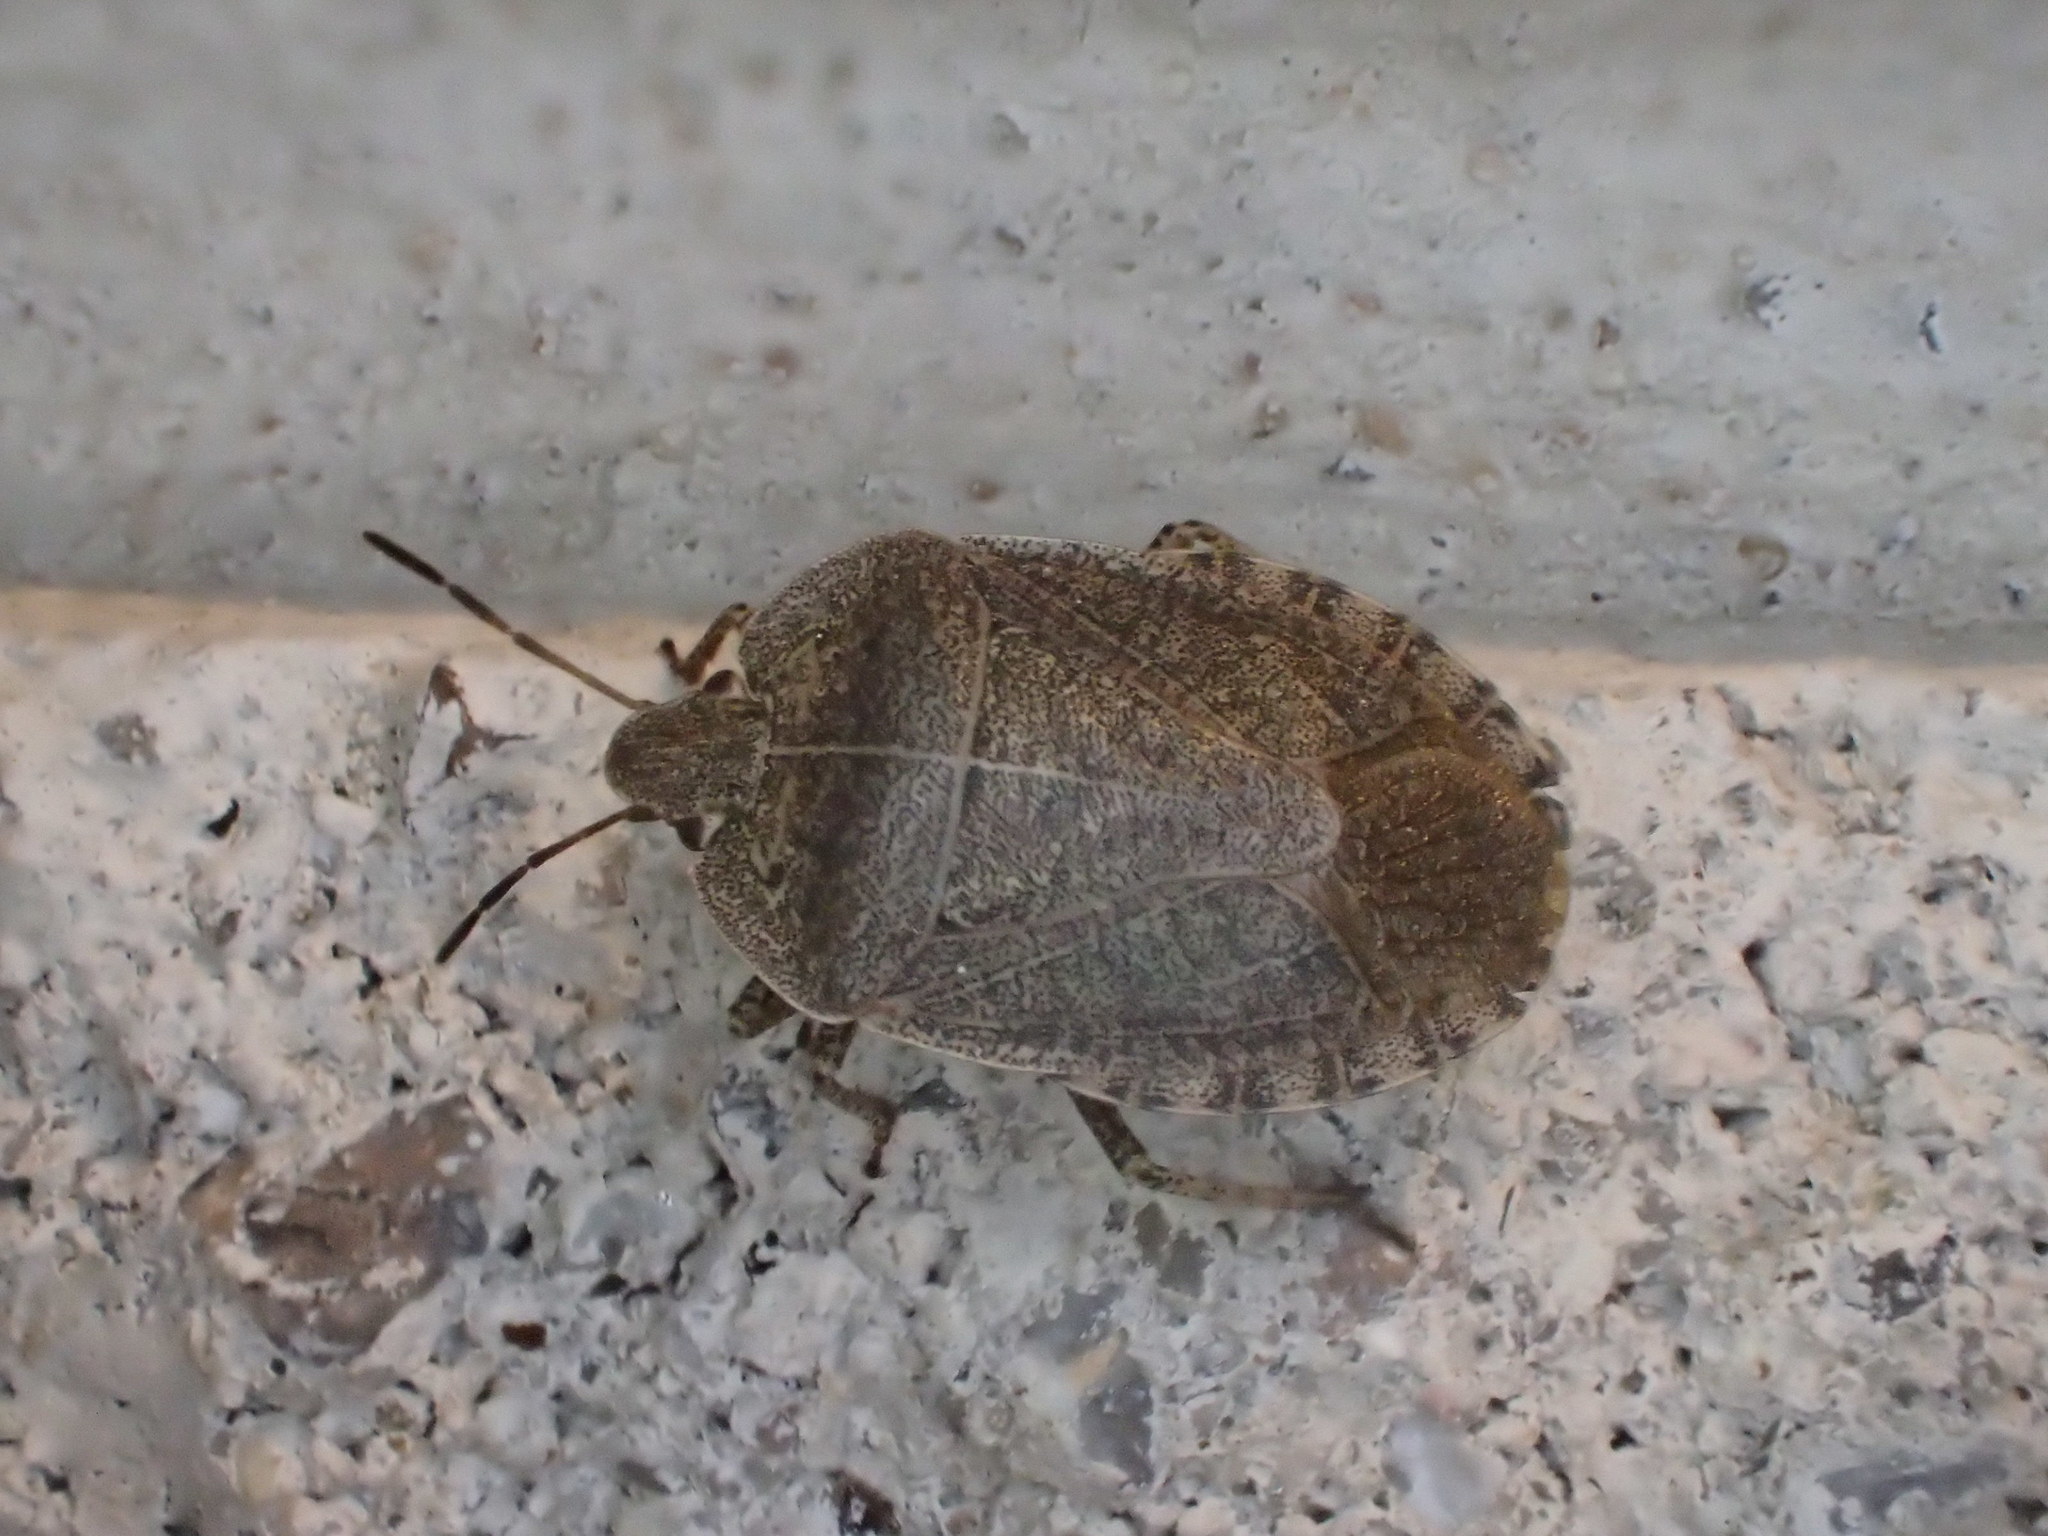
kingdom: Animalia
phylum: Arthropoda
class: Insecta
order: Hemiptera
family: Pentatomidae
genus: Menecles
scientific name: Menecles insertus
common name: Elf shoe stink bug
